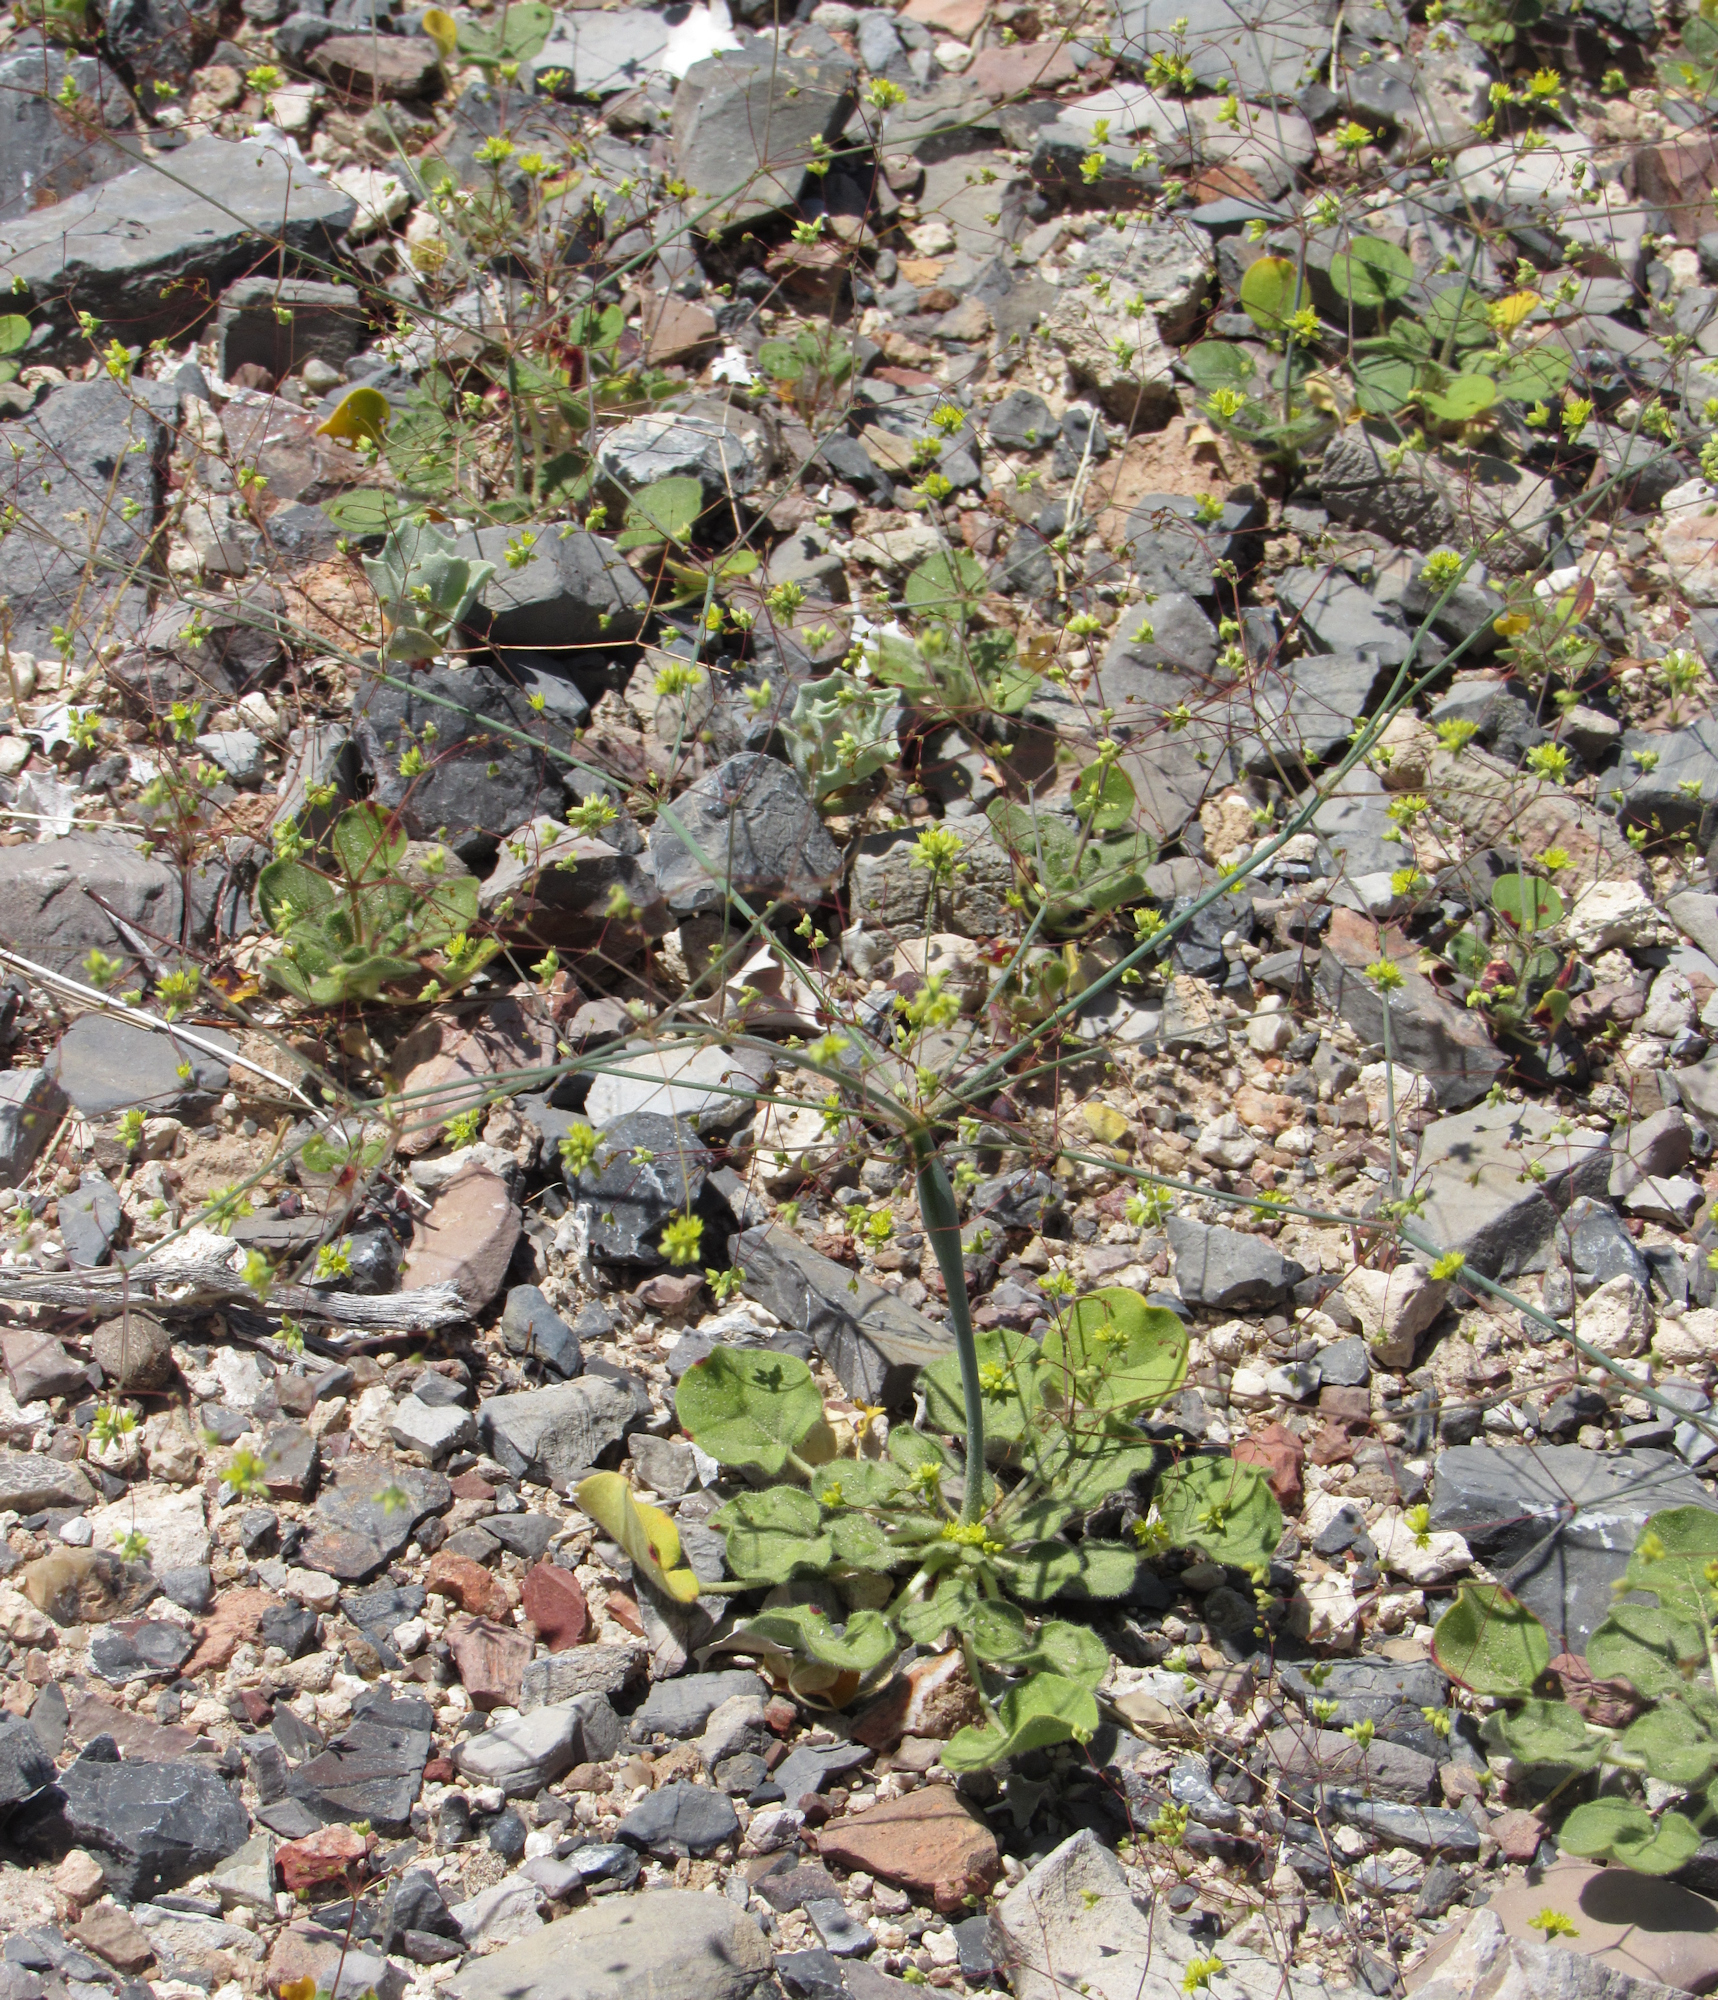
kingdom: Plantae
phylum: Tracheophyta
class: Magnoliopsida
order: Caryophyllales
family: Polygonaceae
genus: Eriogonum
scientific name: Eriogonum trichopes
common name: Little desert trumpet
